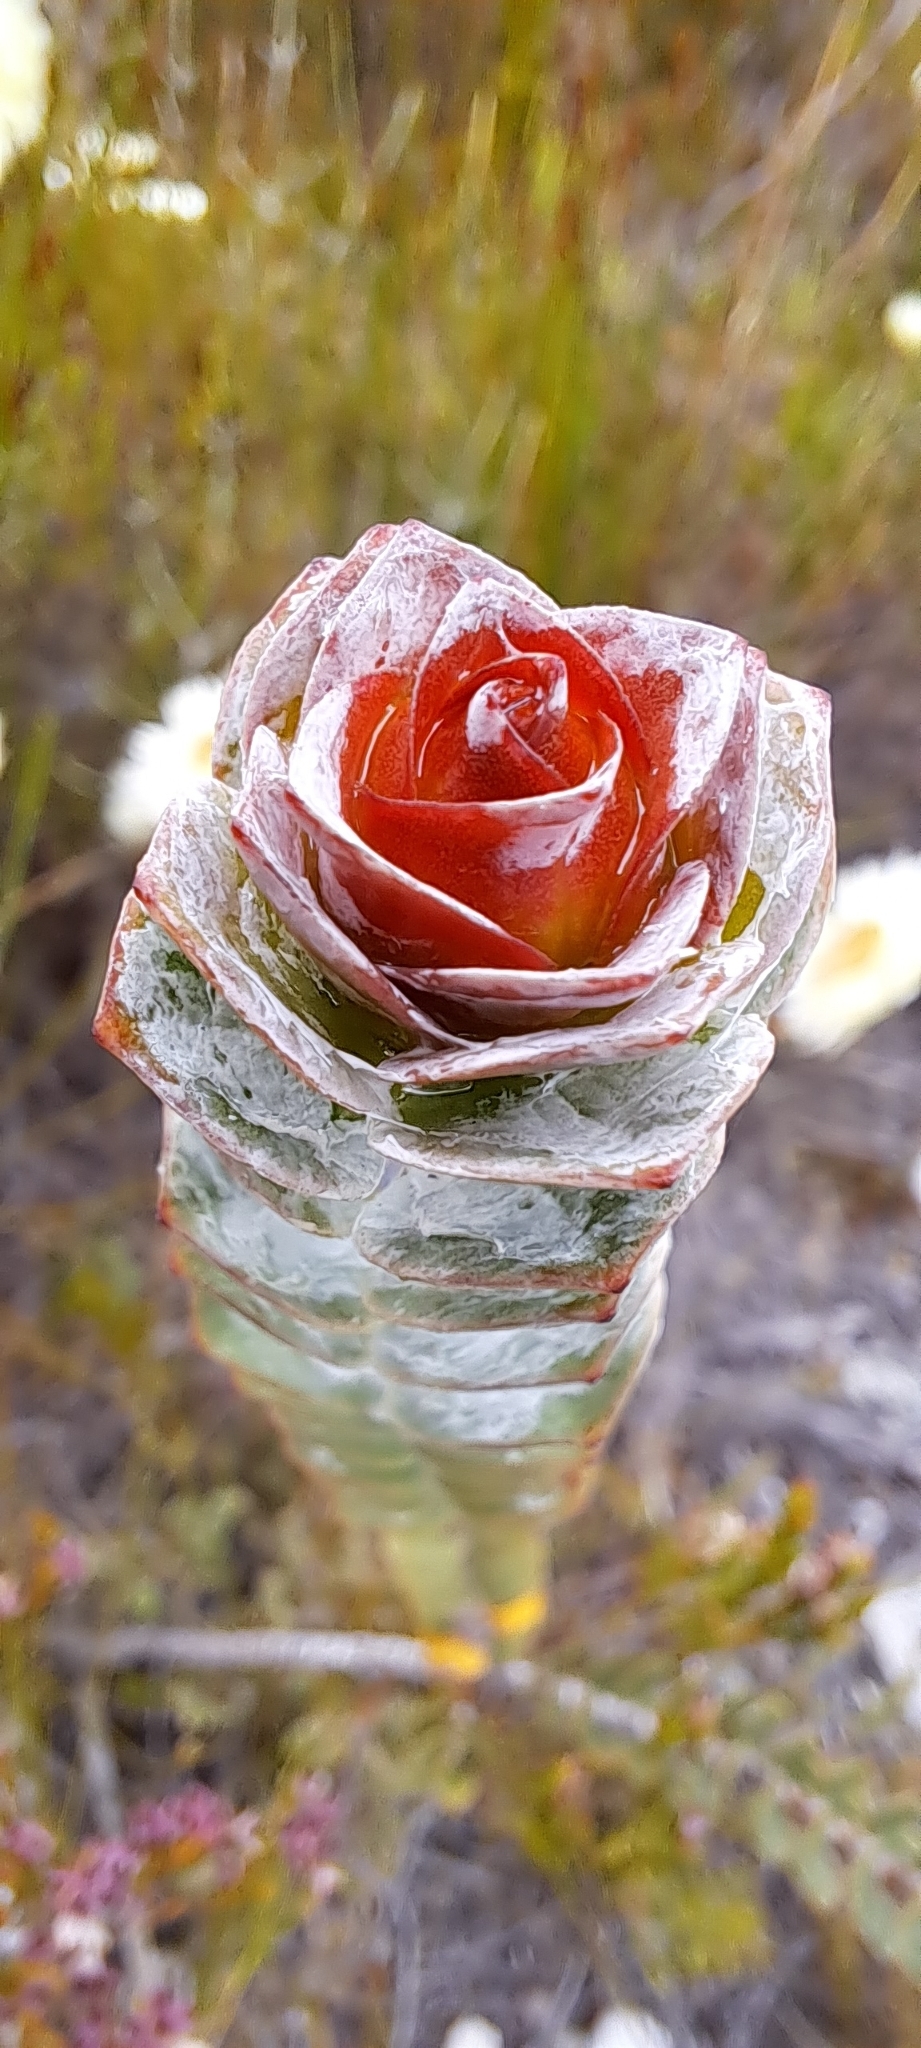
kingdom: Plantae
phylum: Tracheophyta
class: Magnoliopsida
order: Myrtales
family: Penaeaceae
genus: Saltera
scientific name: Saltera sarcocolla
